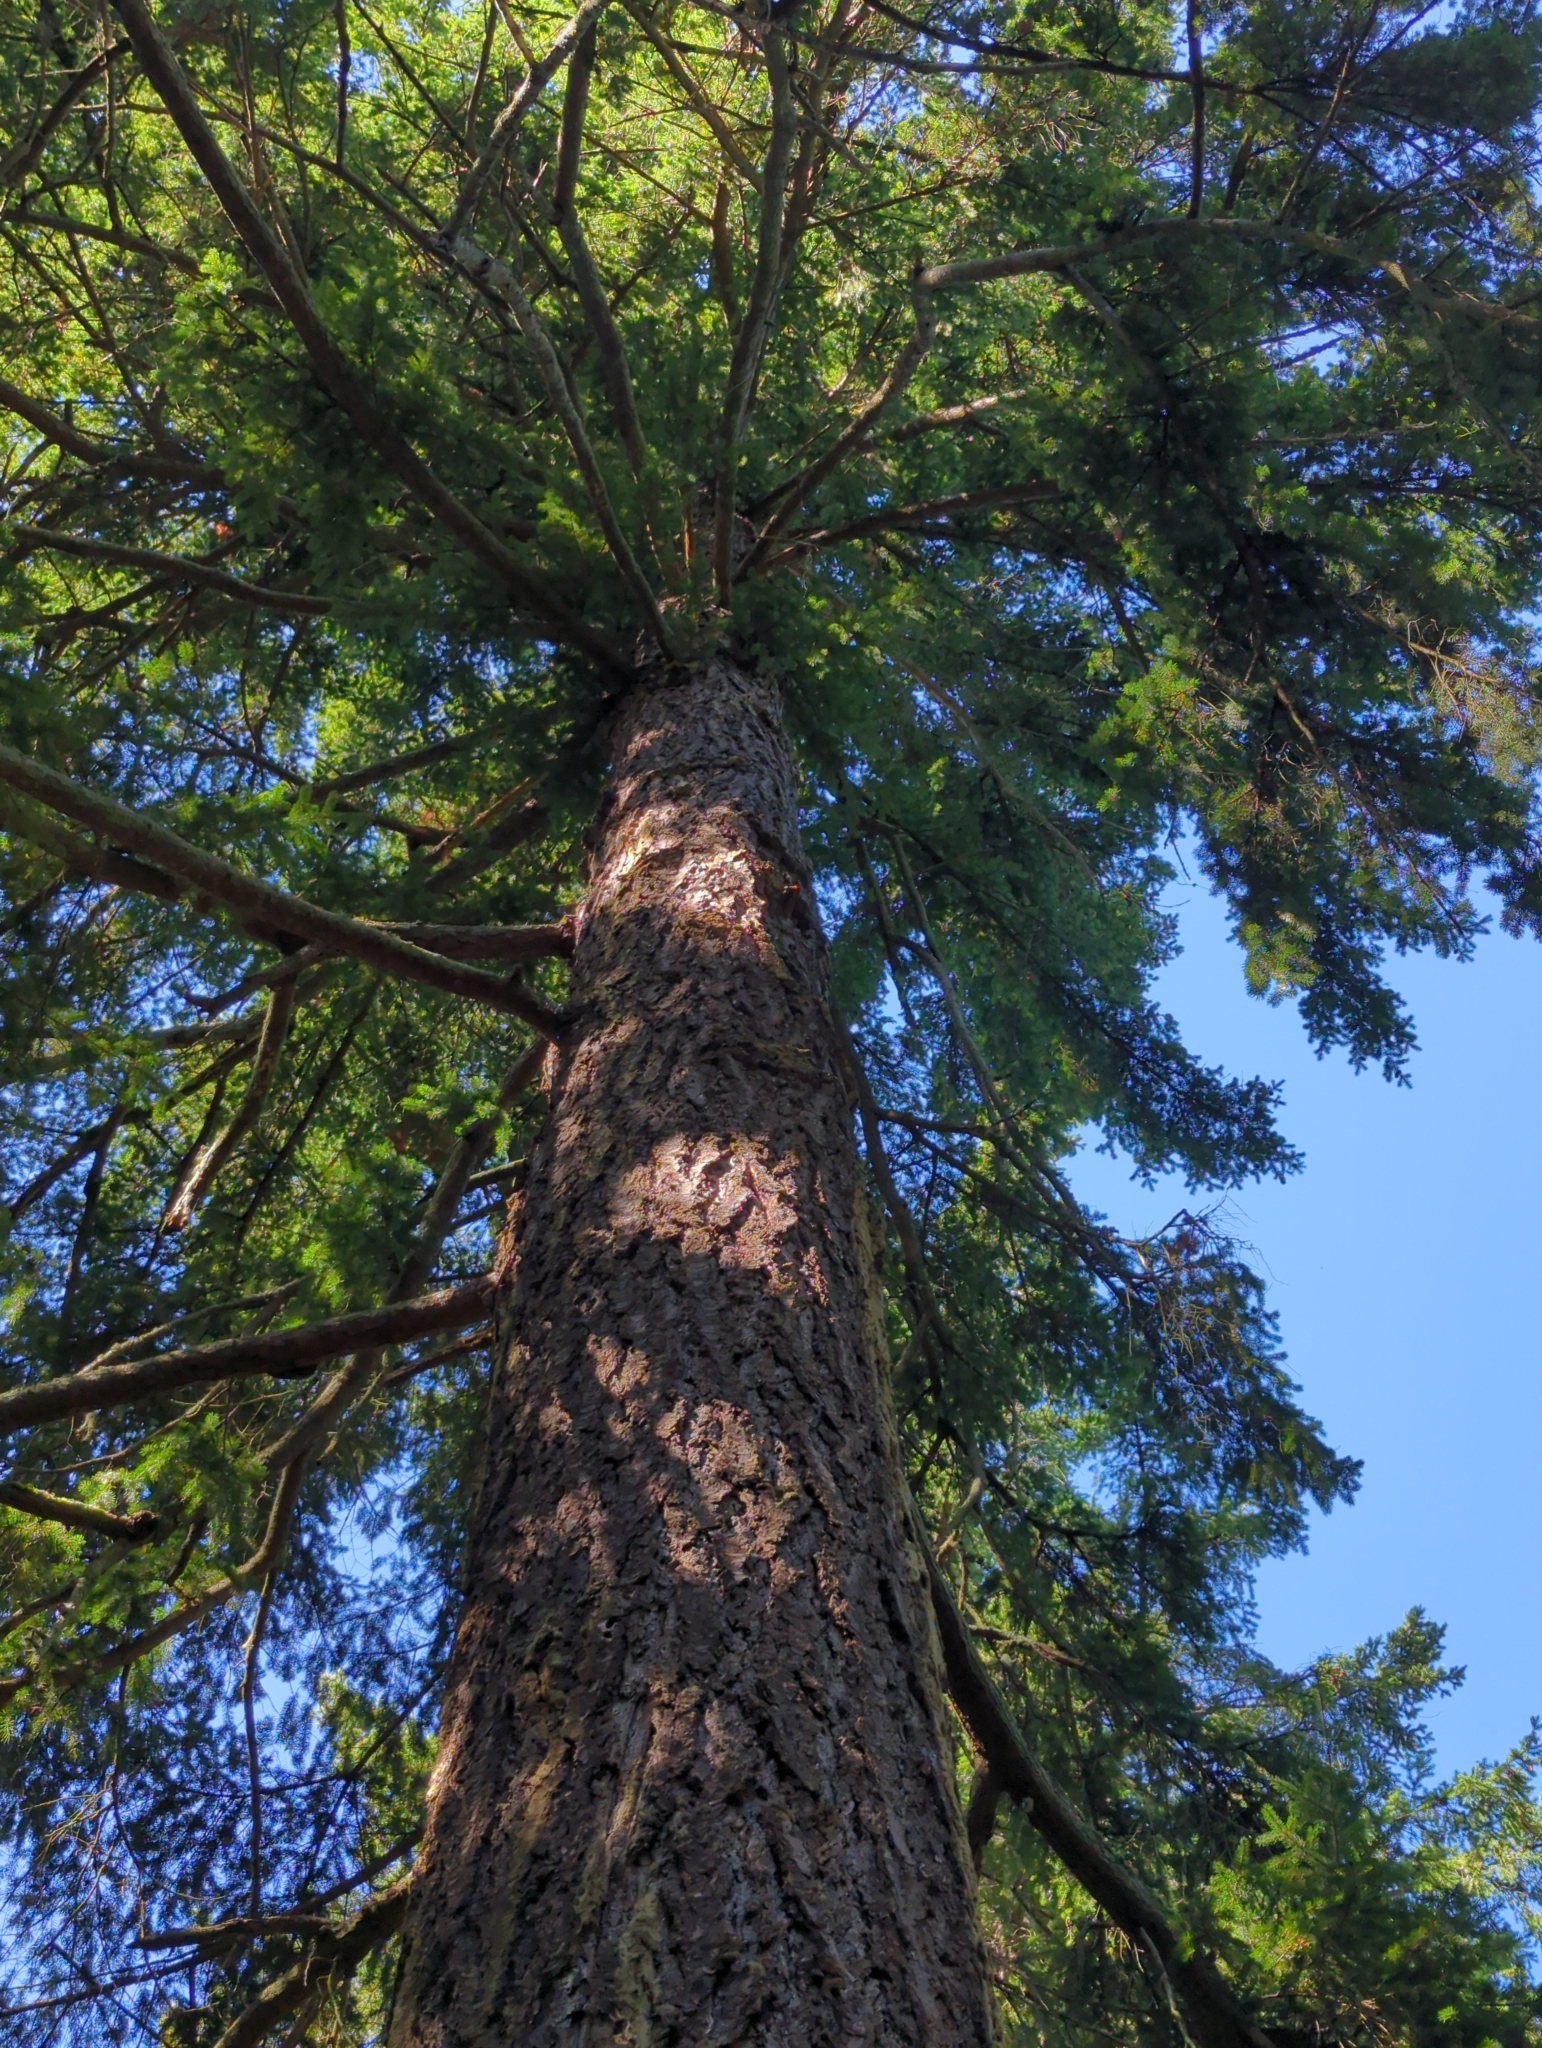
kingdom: Plantae
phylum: Tracheophyta
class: Pinopsida
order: Pinales
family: Pinaceae
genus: Pseudotsuga
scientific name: Pseudotsuga menziesii
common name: Douglas fir
